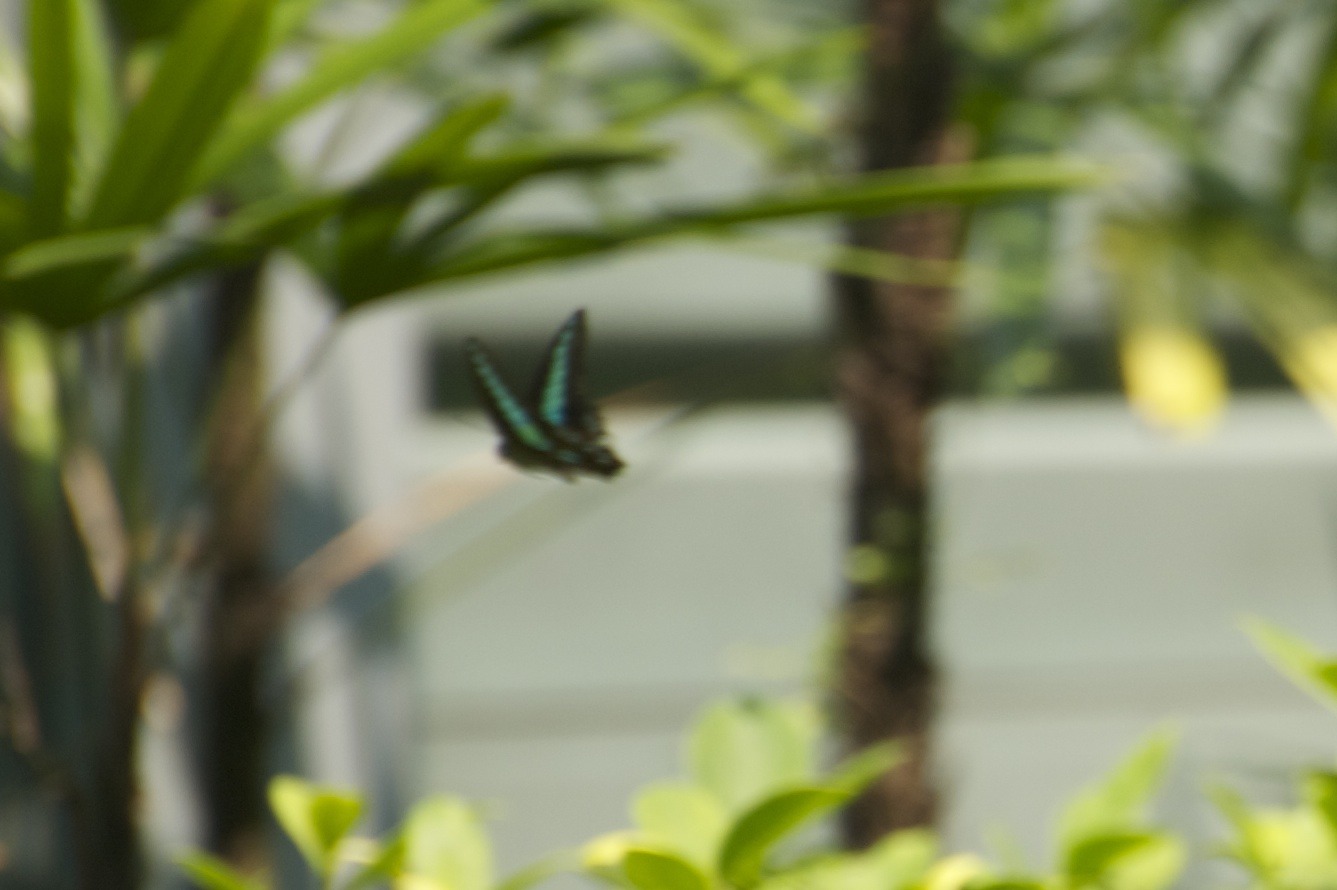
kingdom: Fungi
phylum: Ascomycota
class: Sordariomycetes
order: Microascales
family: Microascaceae
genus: Graphium
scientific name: Graphium sarpedon
